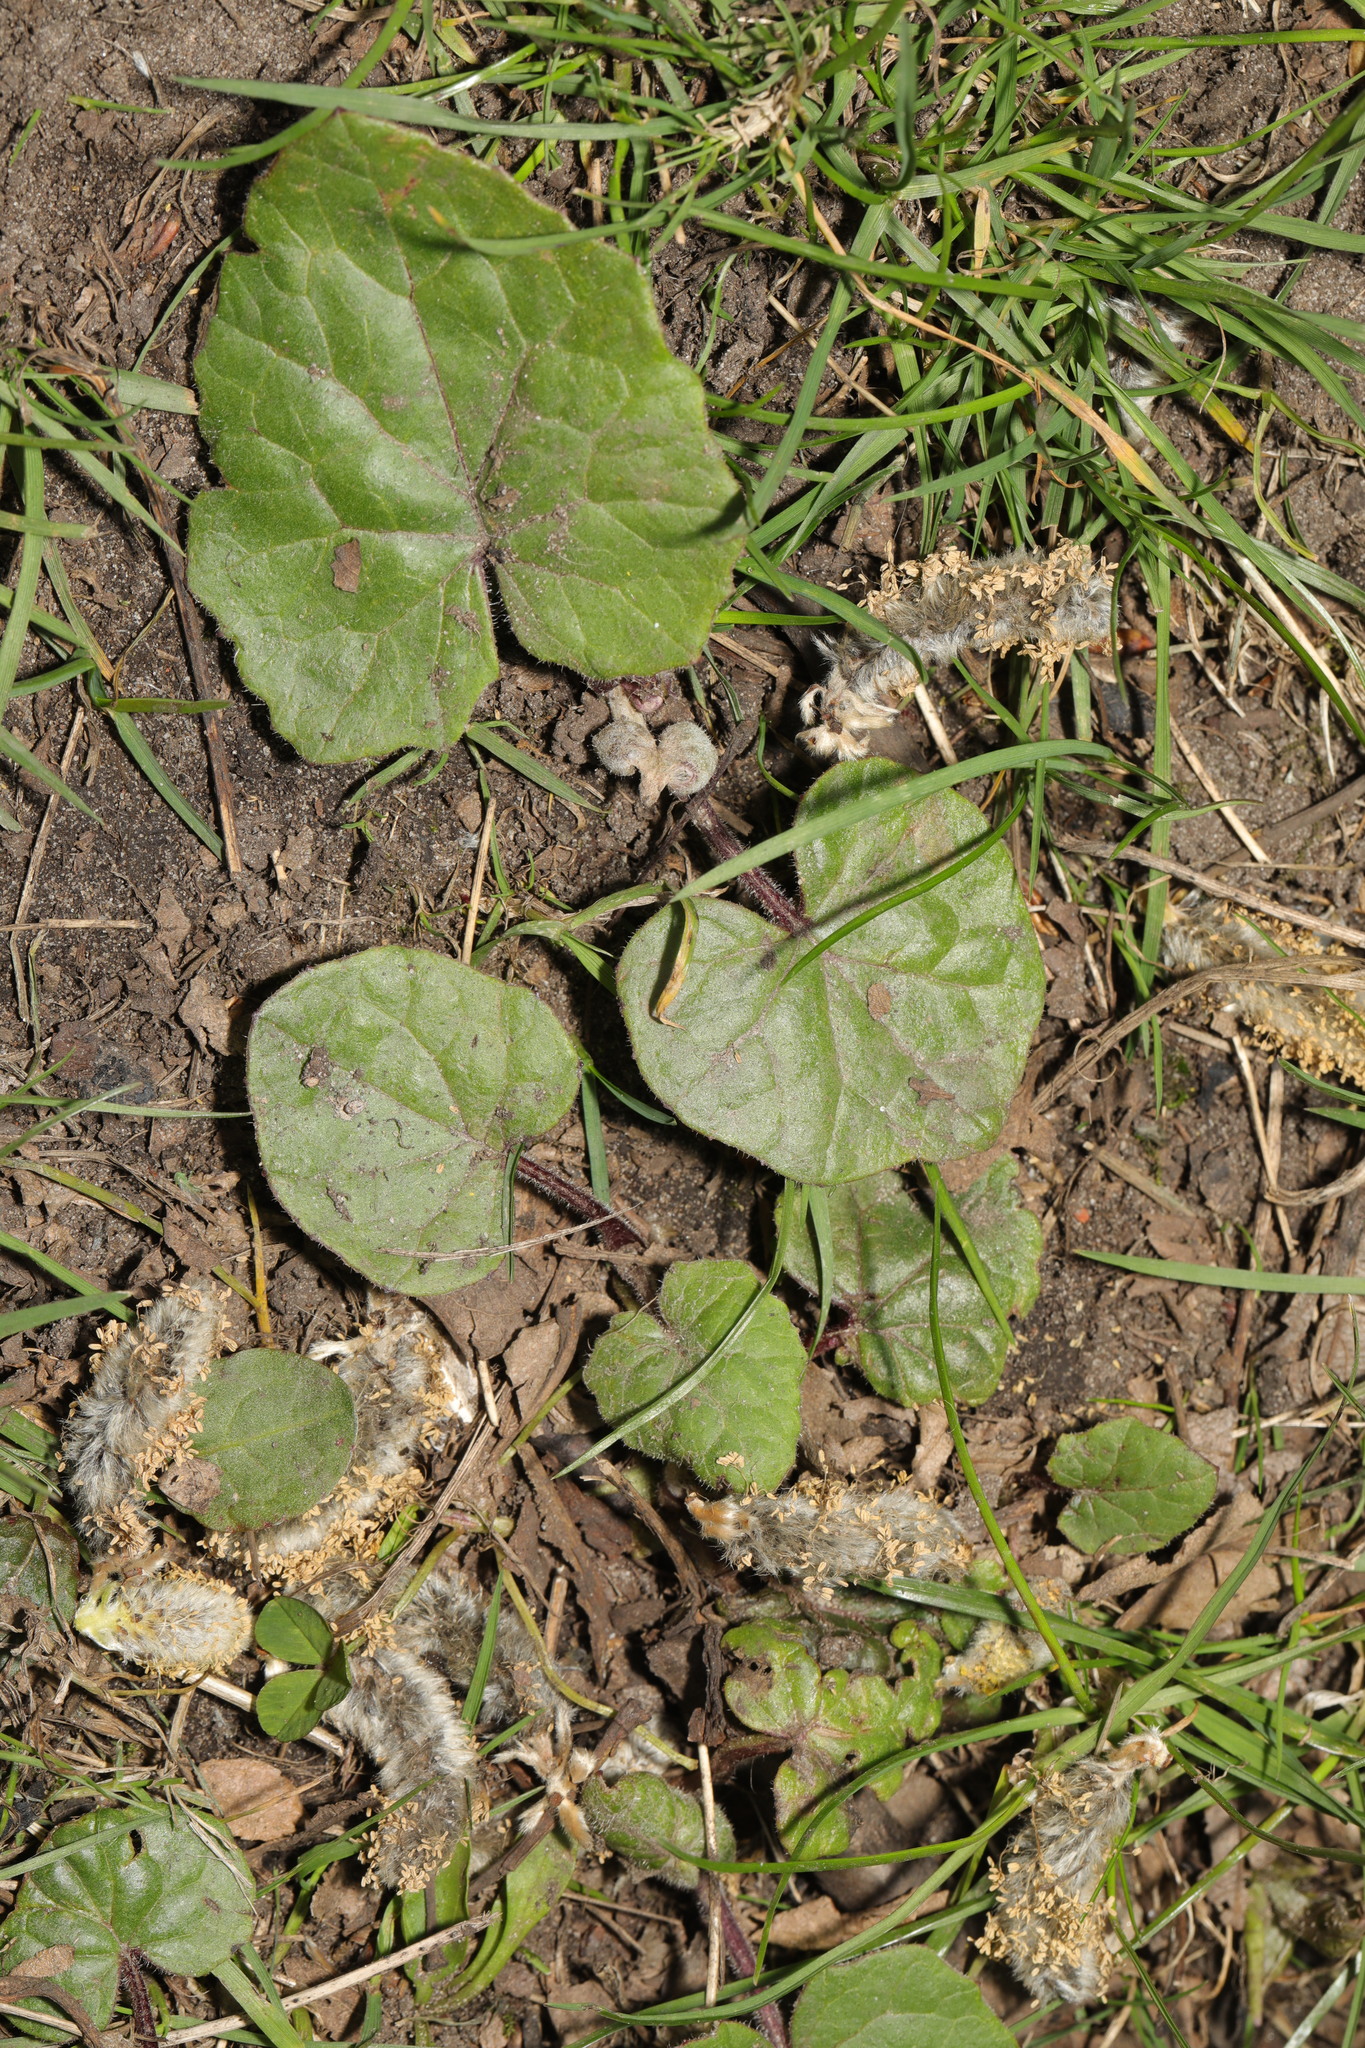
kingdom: Plantae
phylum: Tracheophyta
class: Magnoliopsida
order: Asterales
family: Asteraceae
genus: Tussilago
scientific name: Tussilago farfara
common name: Coltsfoot
